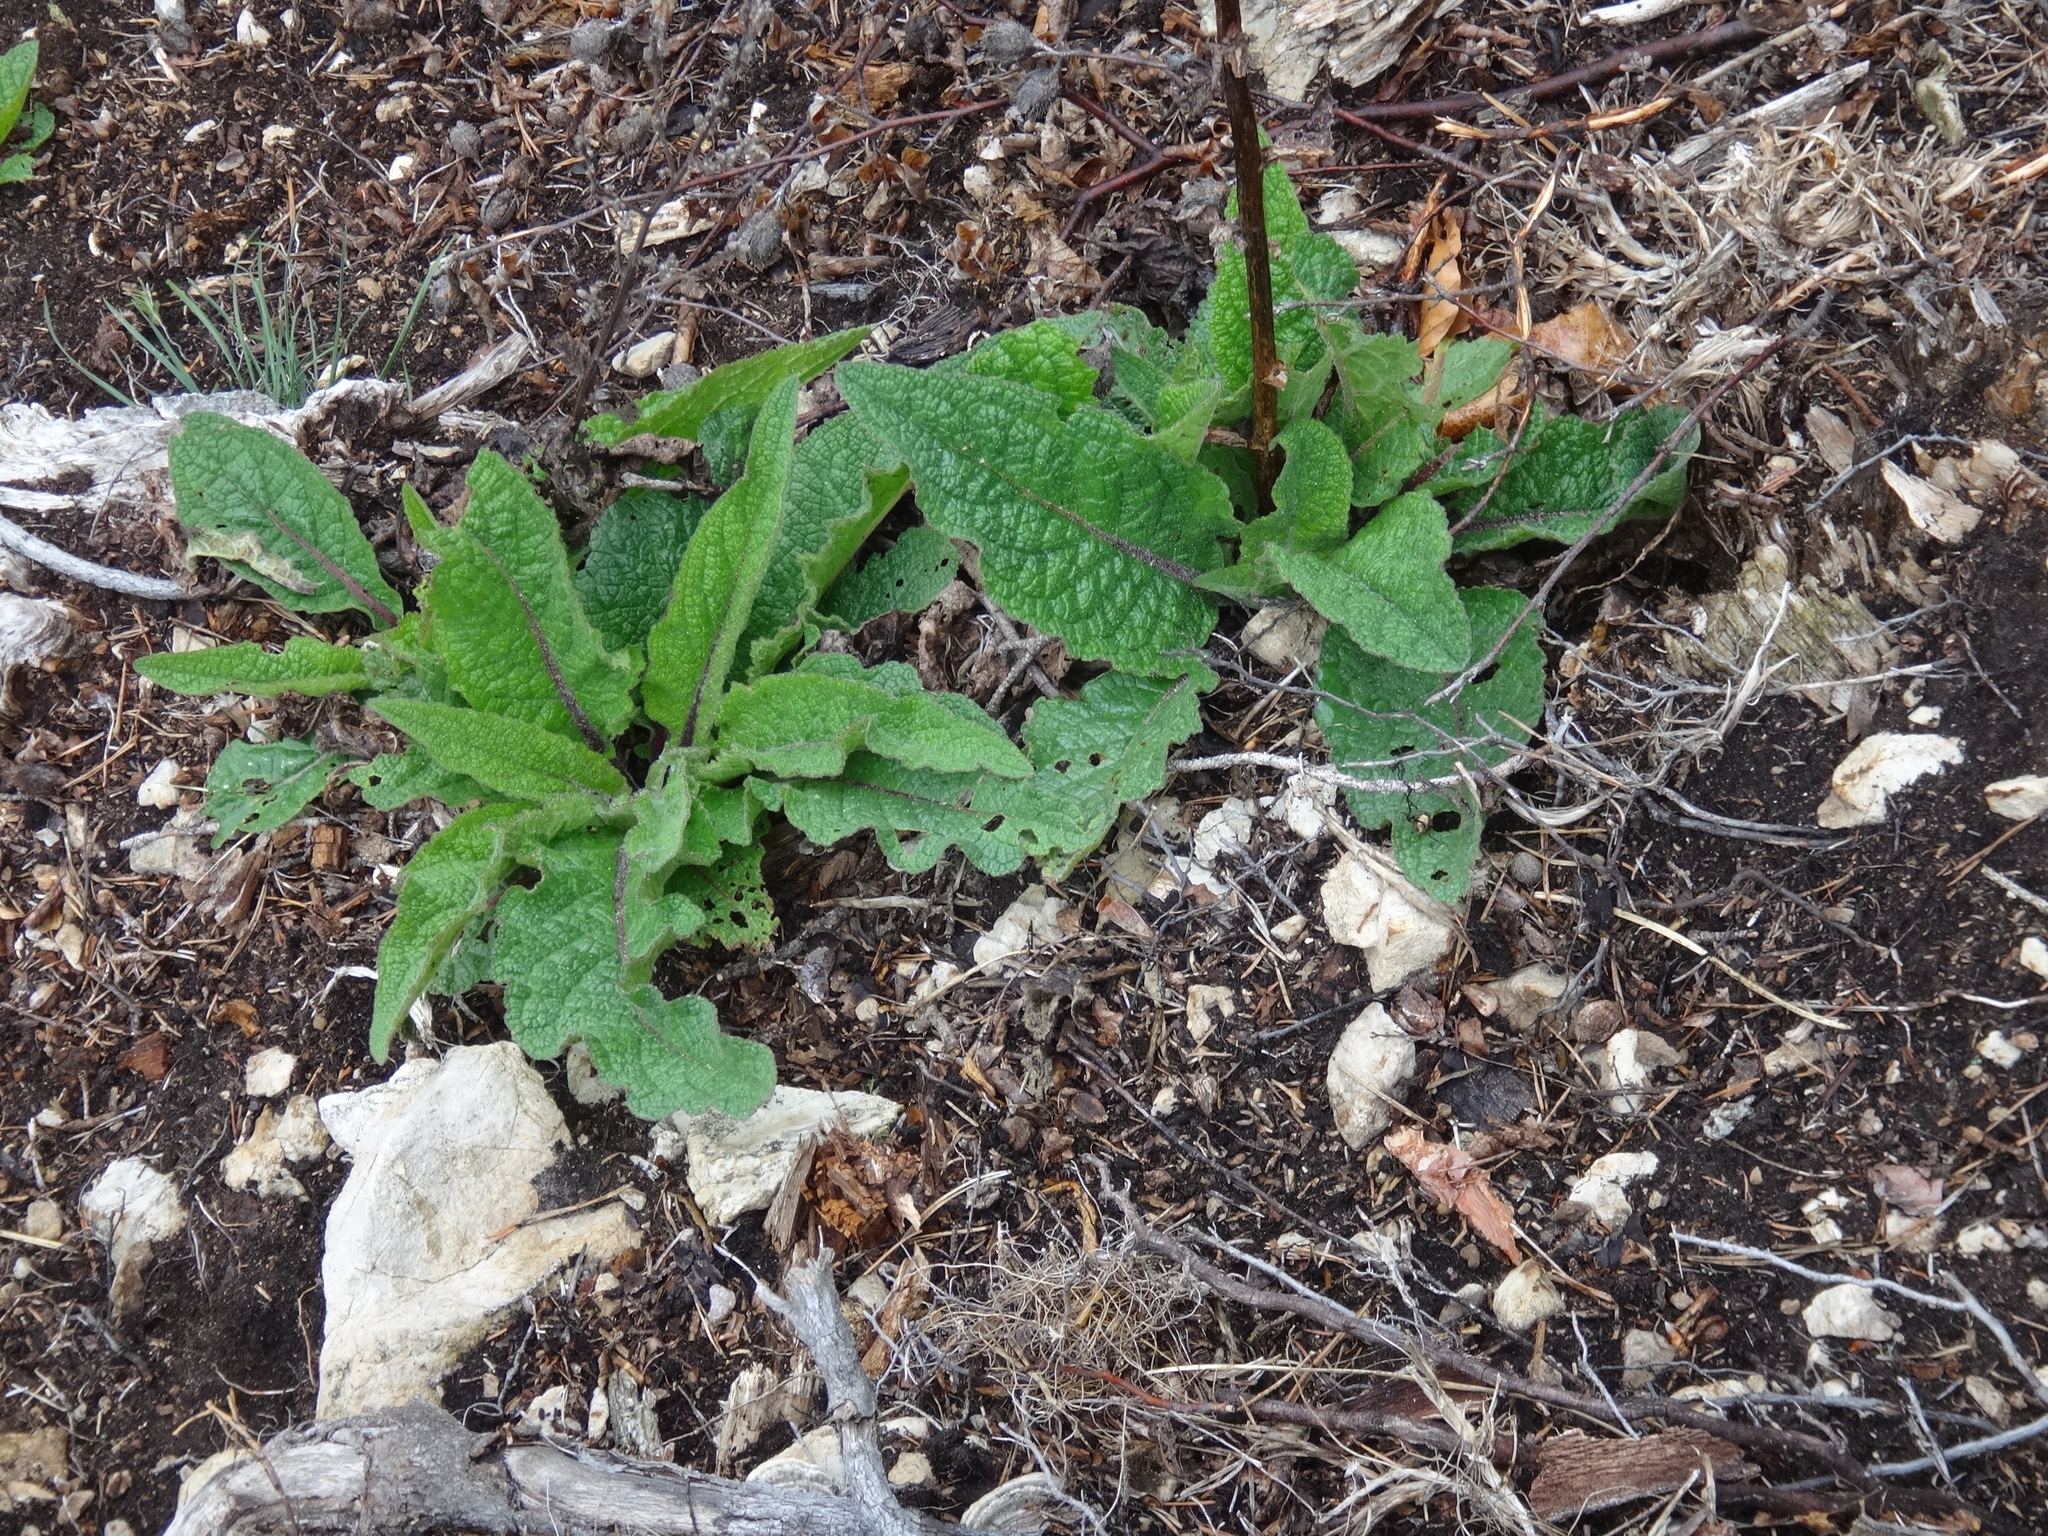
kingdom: Plantae
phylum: Tracheophyta
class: Magnoliopsida
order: Lamiales
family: Scrophulariaceae
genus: Verbascum
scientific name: Verbascum chaixii
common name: Nettle-leaved mullein
